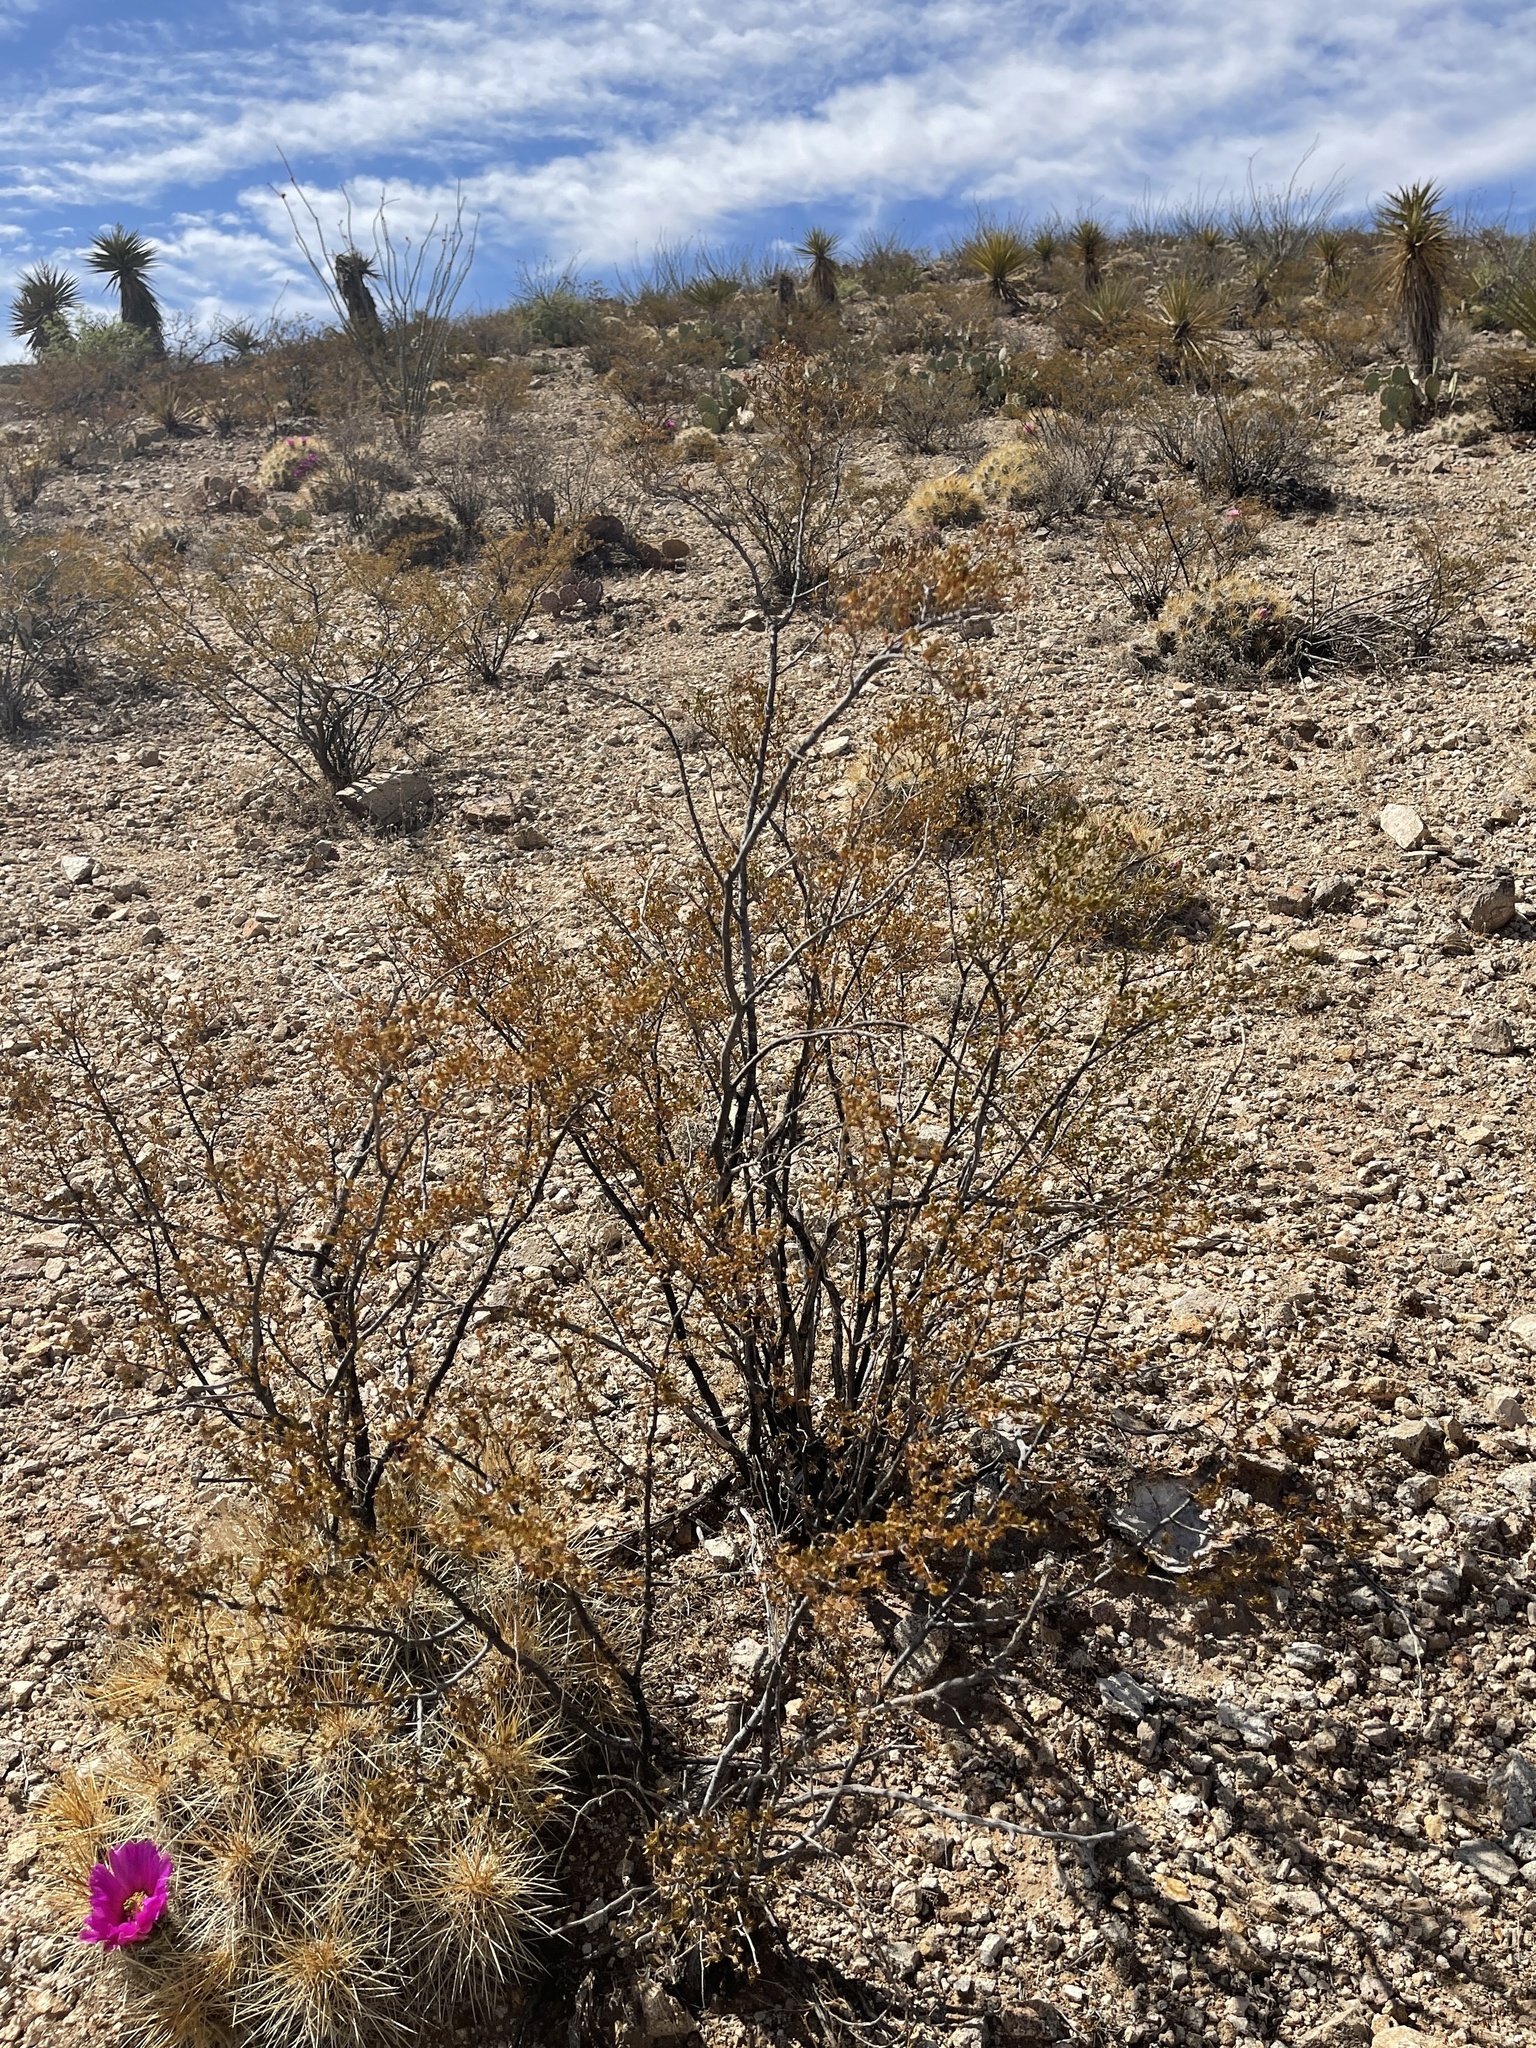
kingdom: Plantae
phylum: Tracheophyta
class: Magnoliopsida
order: Zygophyllales
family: Zygophyllaceae
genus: Larrea
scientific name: Larrea tridentata
